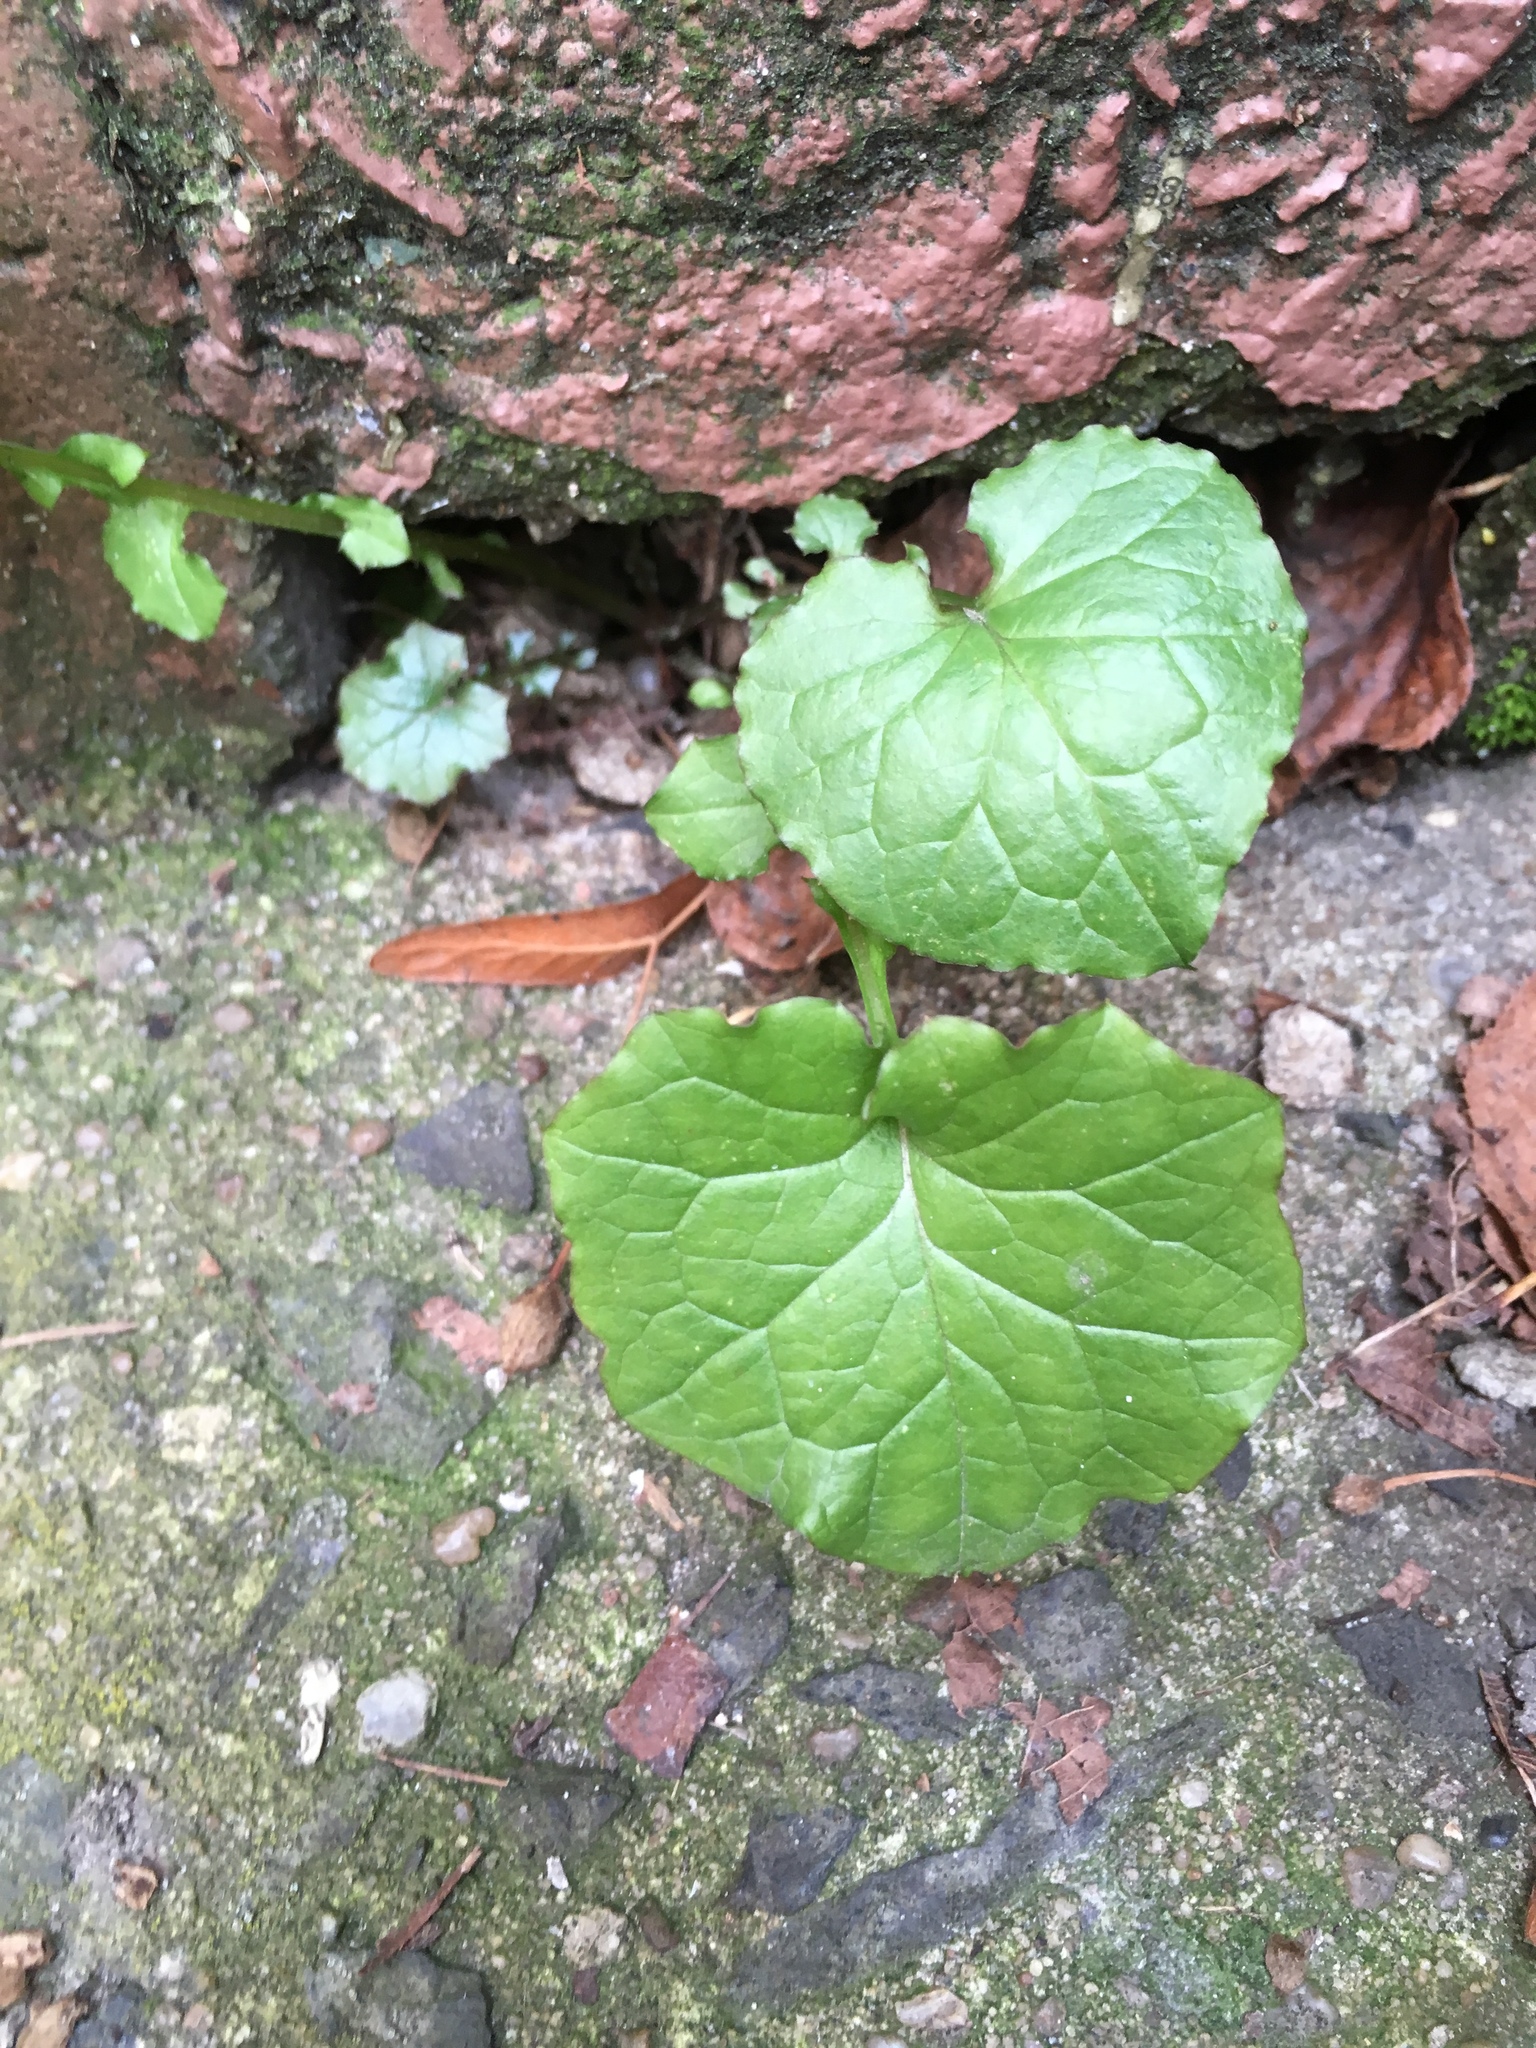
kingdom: Plantae
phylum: Tracheophyta
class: Magnoliopsida
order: Brassicales
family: Brassicaceae
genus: Alliaria
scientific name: Alliaria petiolata
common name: Garlic mustard
